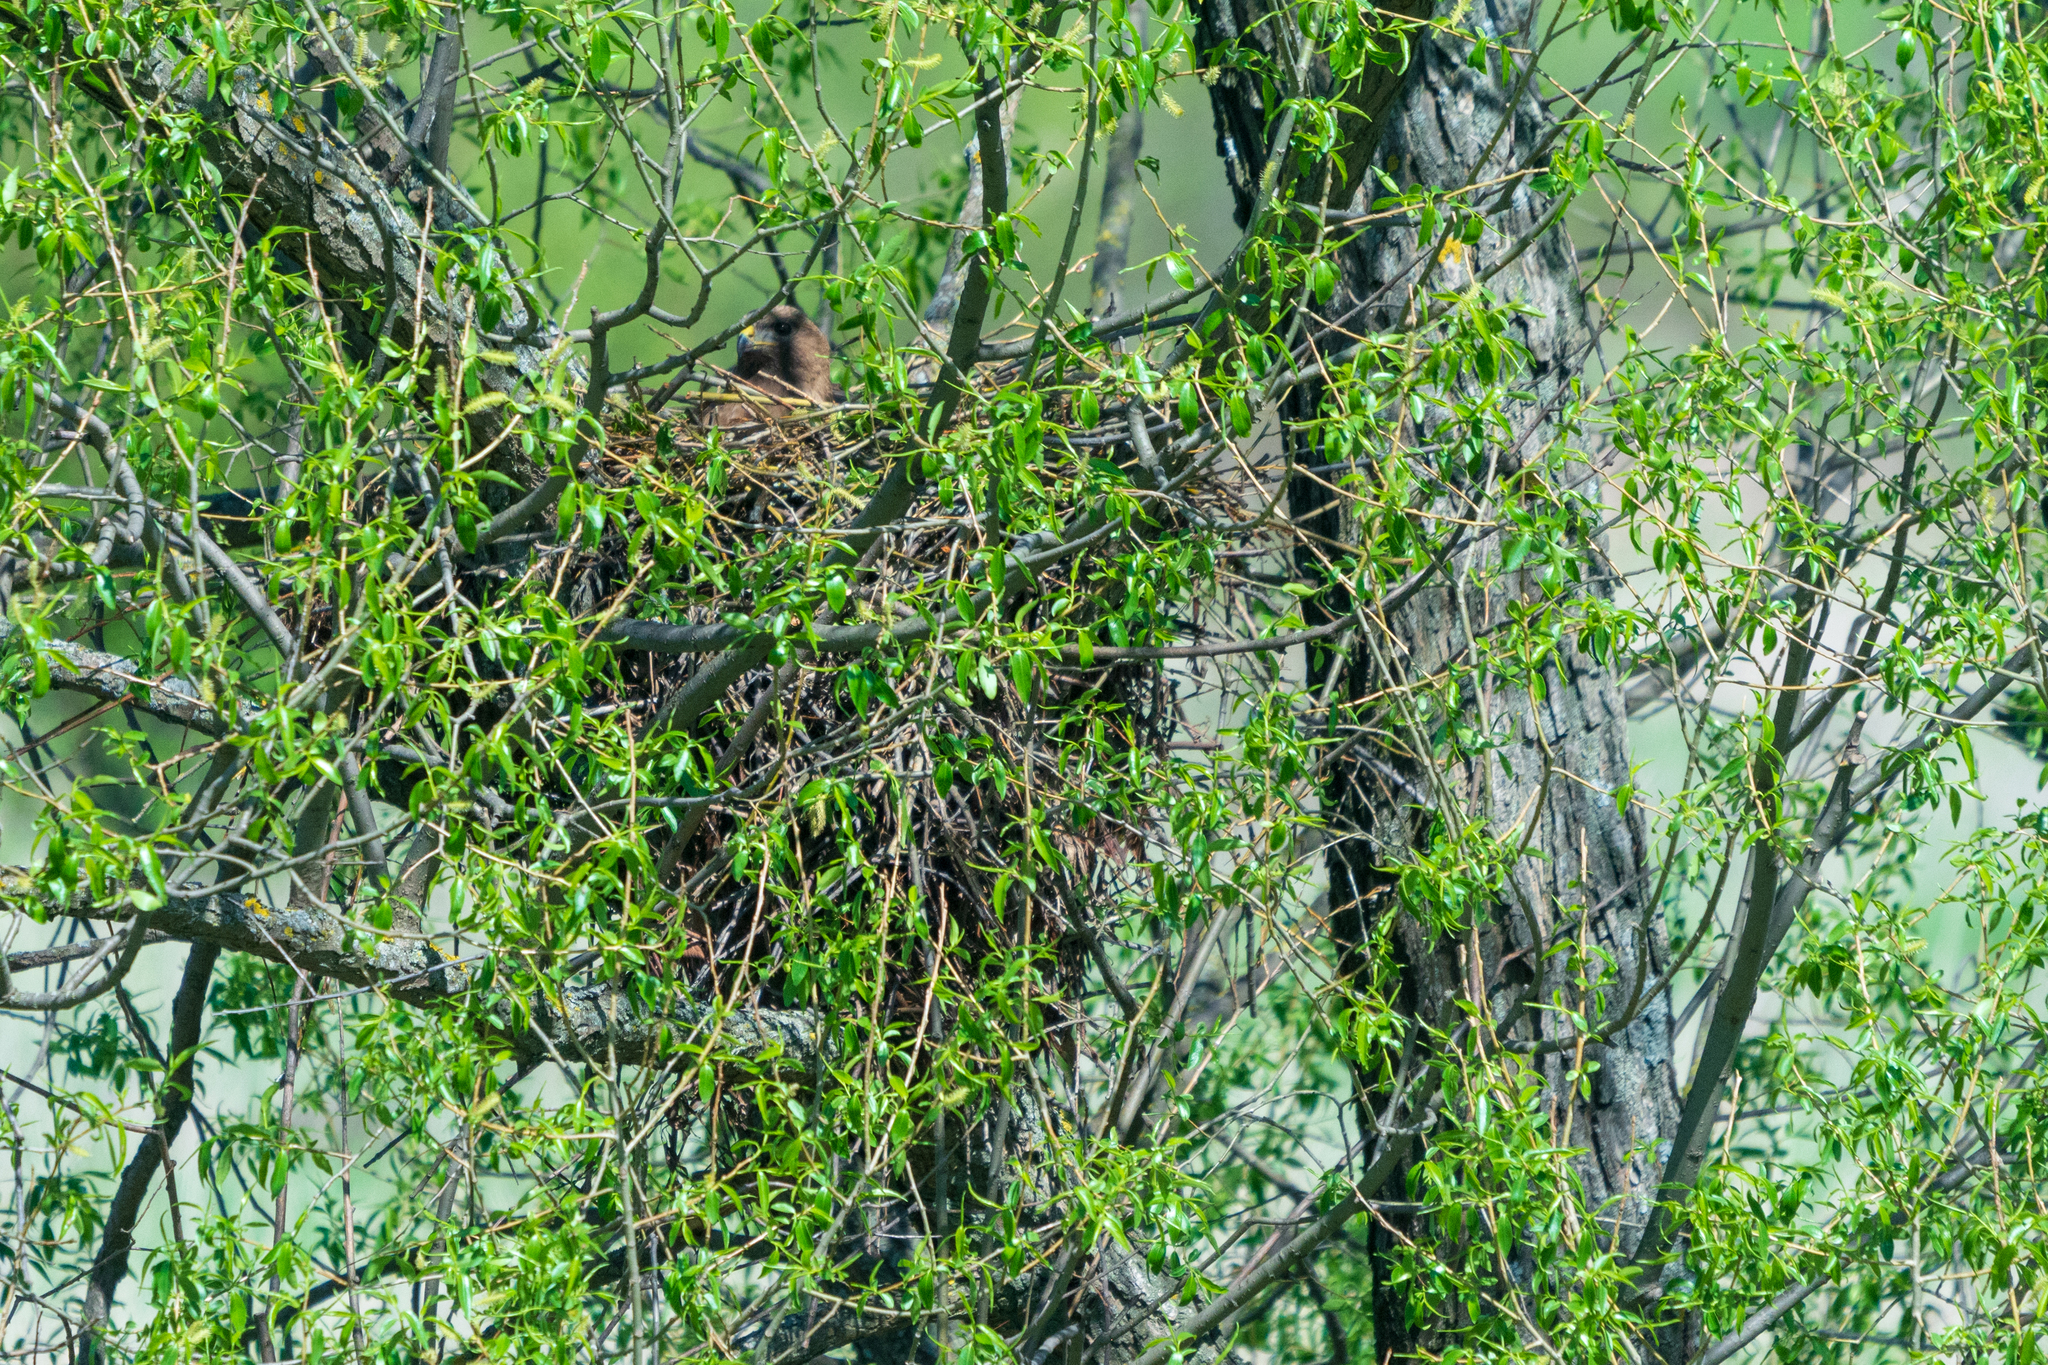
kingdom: Animalia
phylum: Chordata
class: Aves
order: Accipitriformes
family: Accipitridae
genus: Buteo
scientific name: Buteo buteo
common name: Common buzzard
